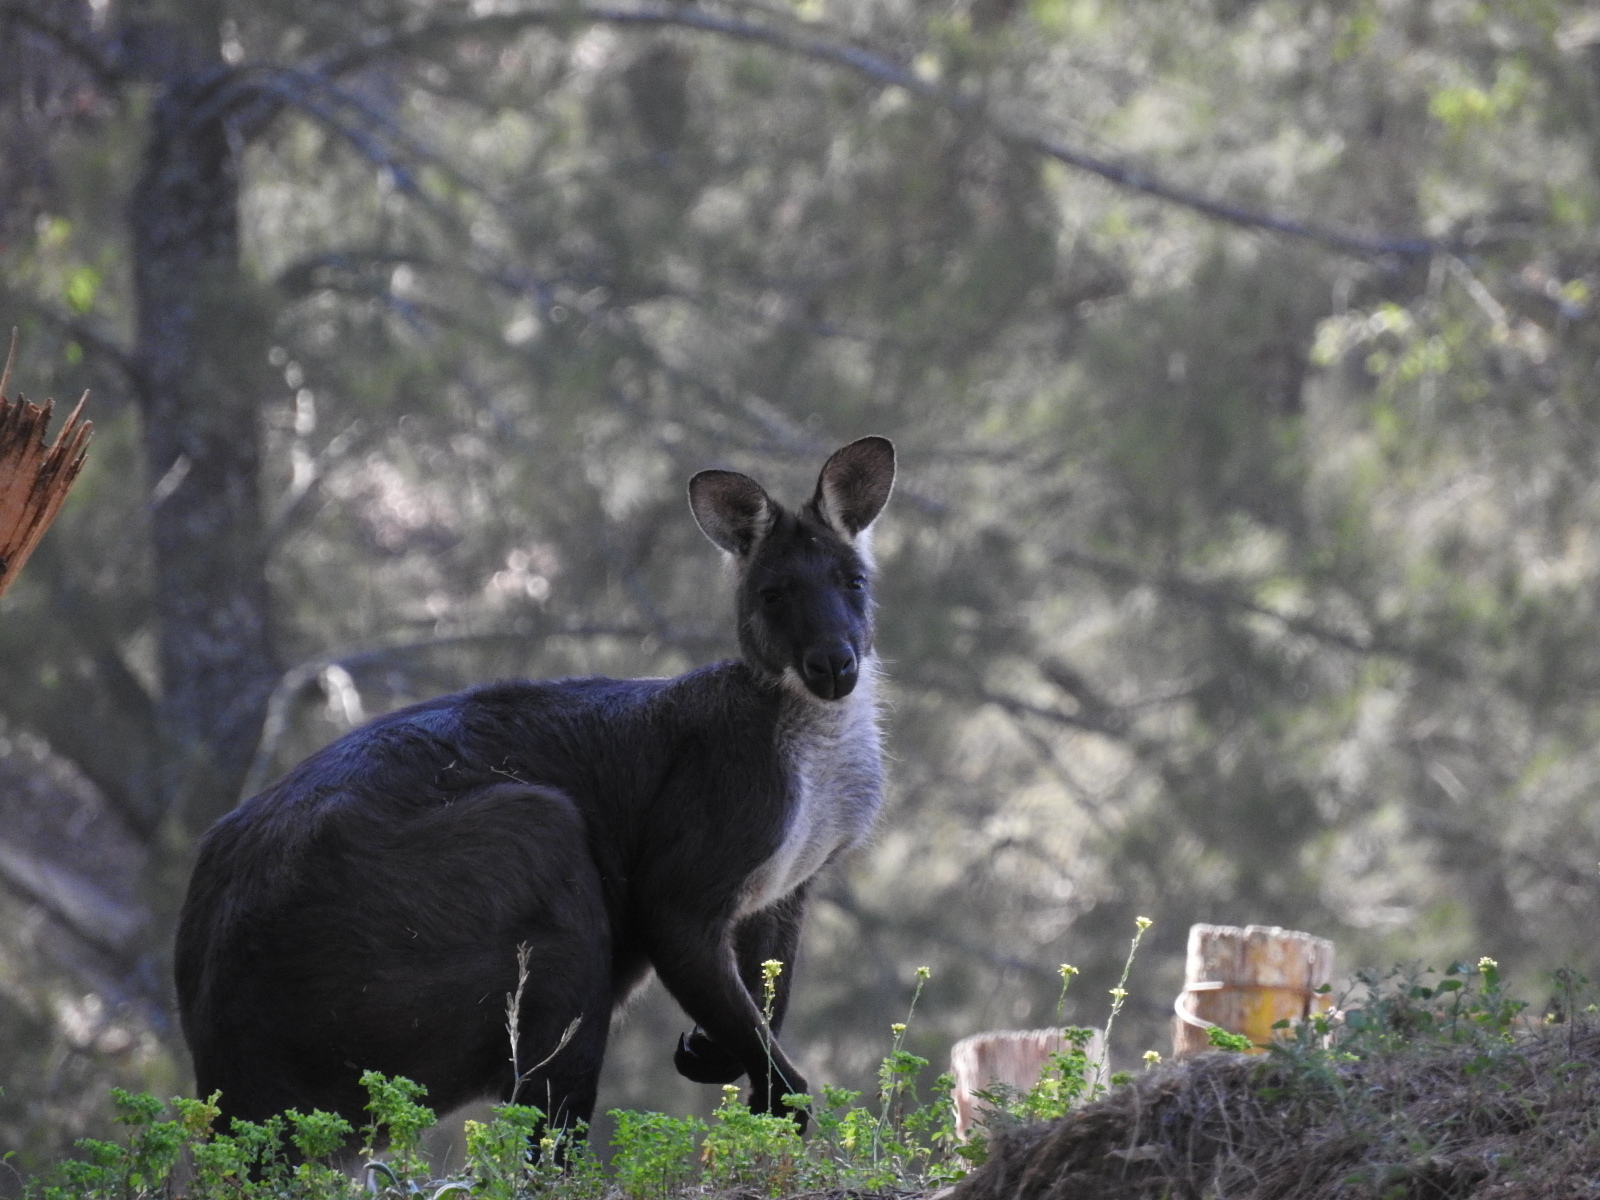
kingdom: Animalia
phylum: Chordata
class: Mammalia
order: Diprotodontia
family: Macropodidae
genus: Macropus
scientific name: Macropus robustus
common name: Eastern wallaroo
